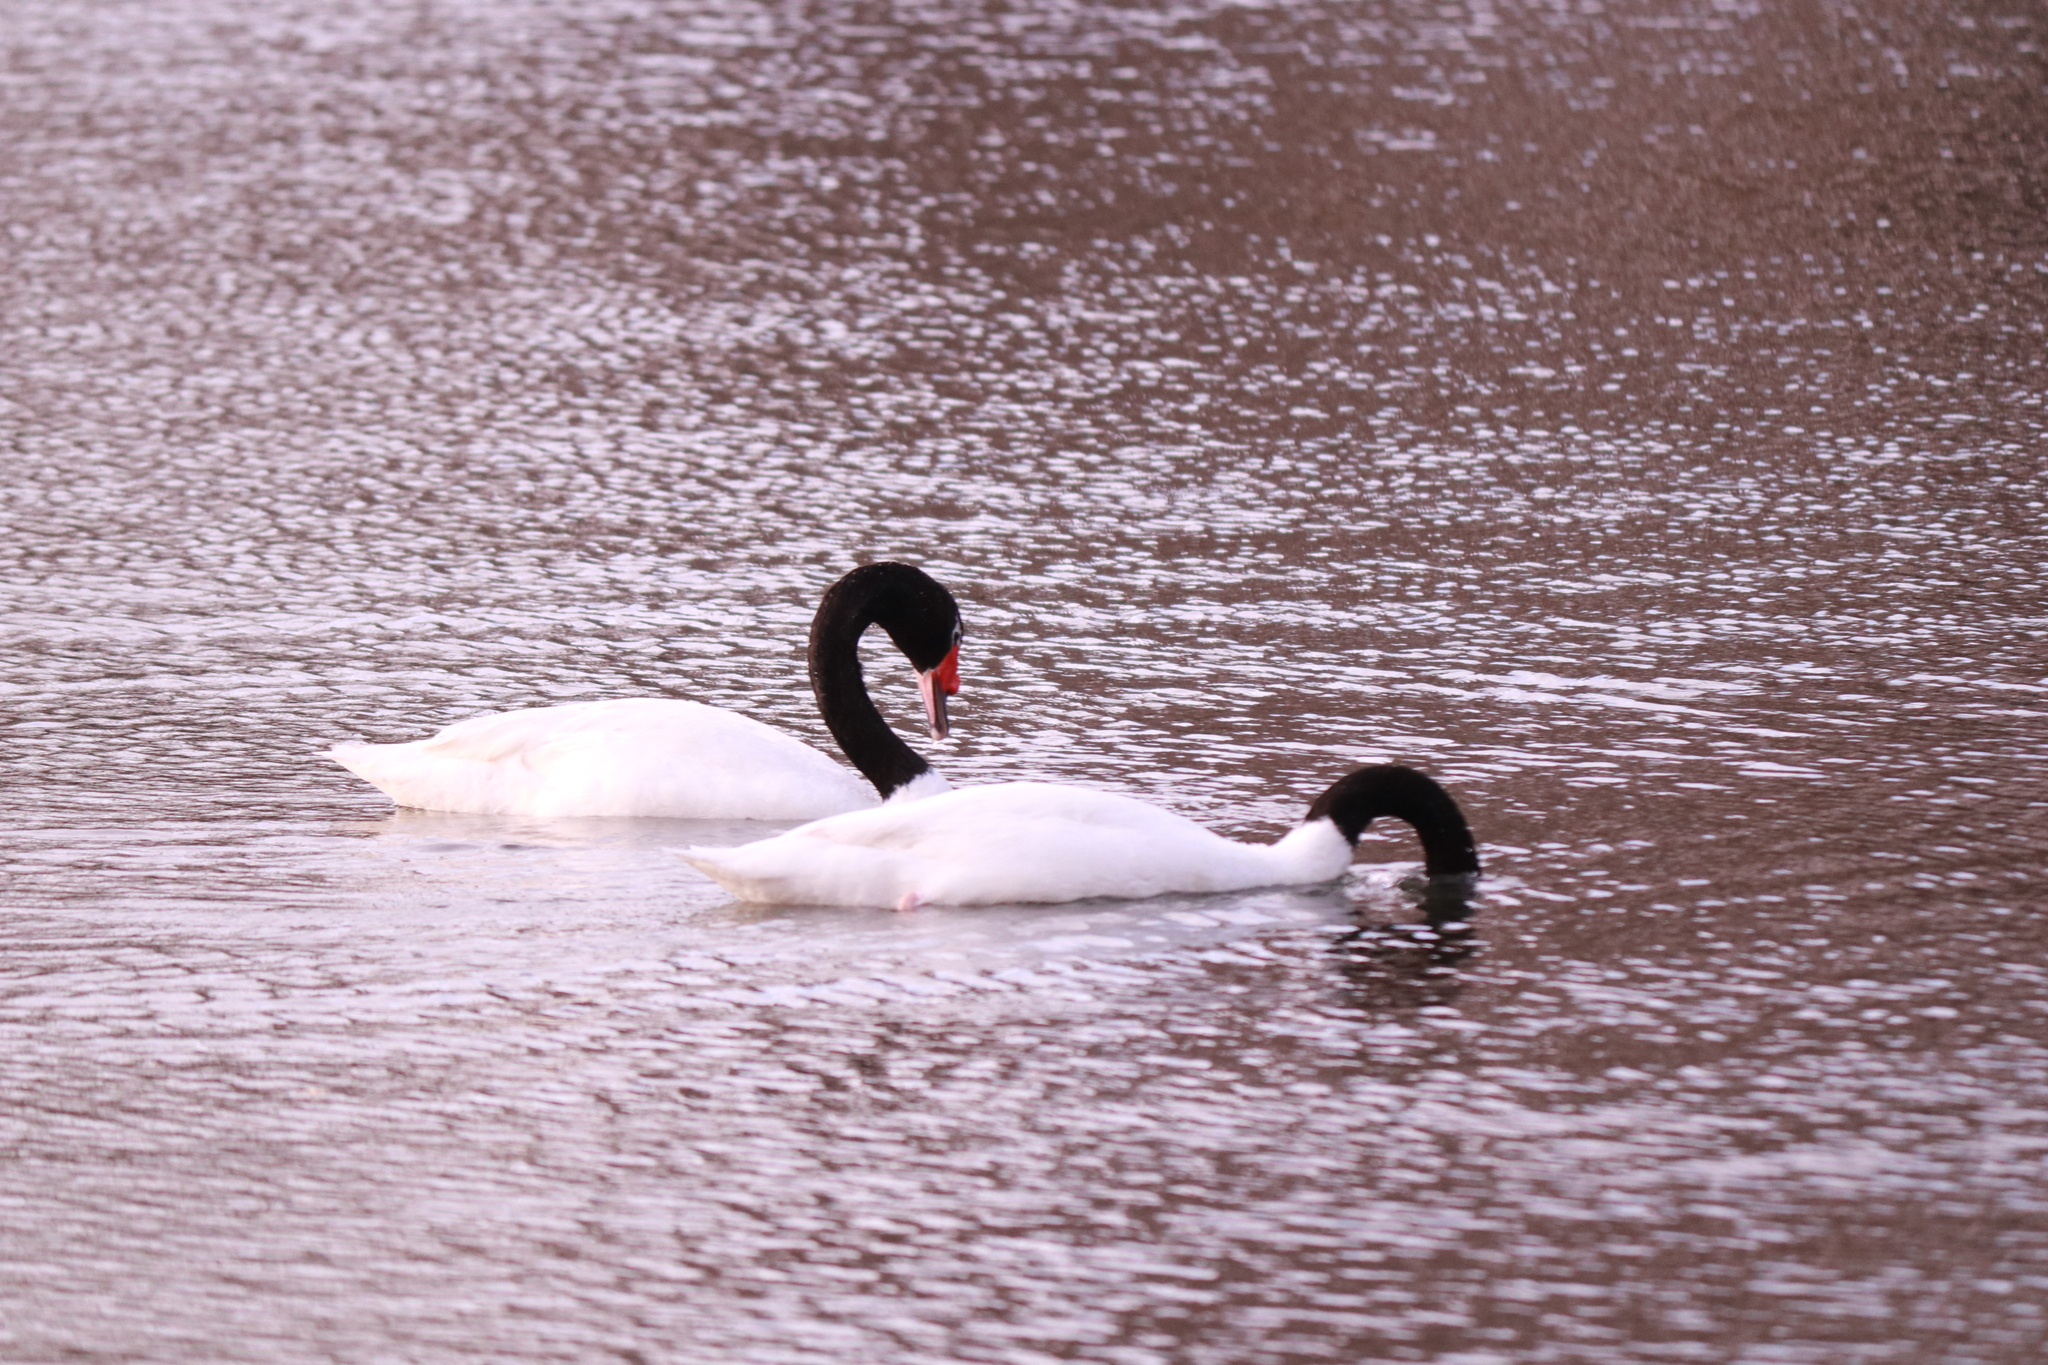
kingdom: Animalia
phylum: Chordata
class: Aves
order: Anseriformes
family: Anatidae
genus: Cygnus
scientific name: Cygnus melancoryphus
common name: Black-necked swan
